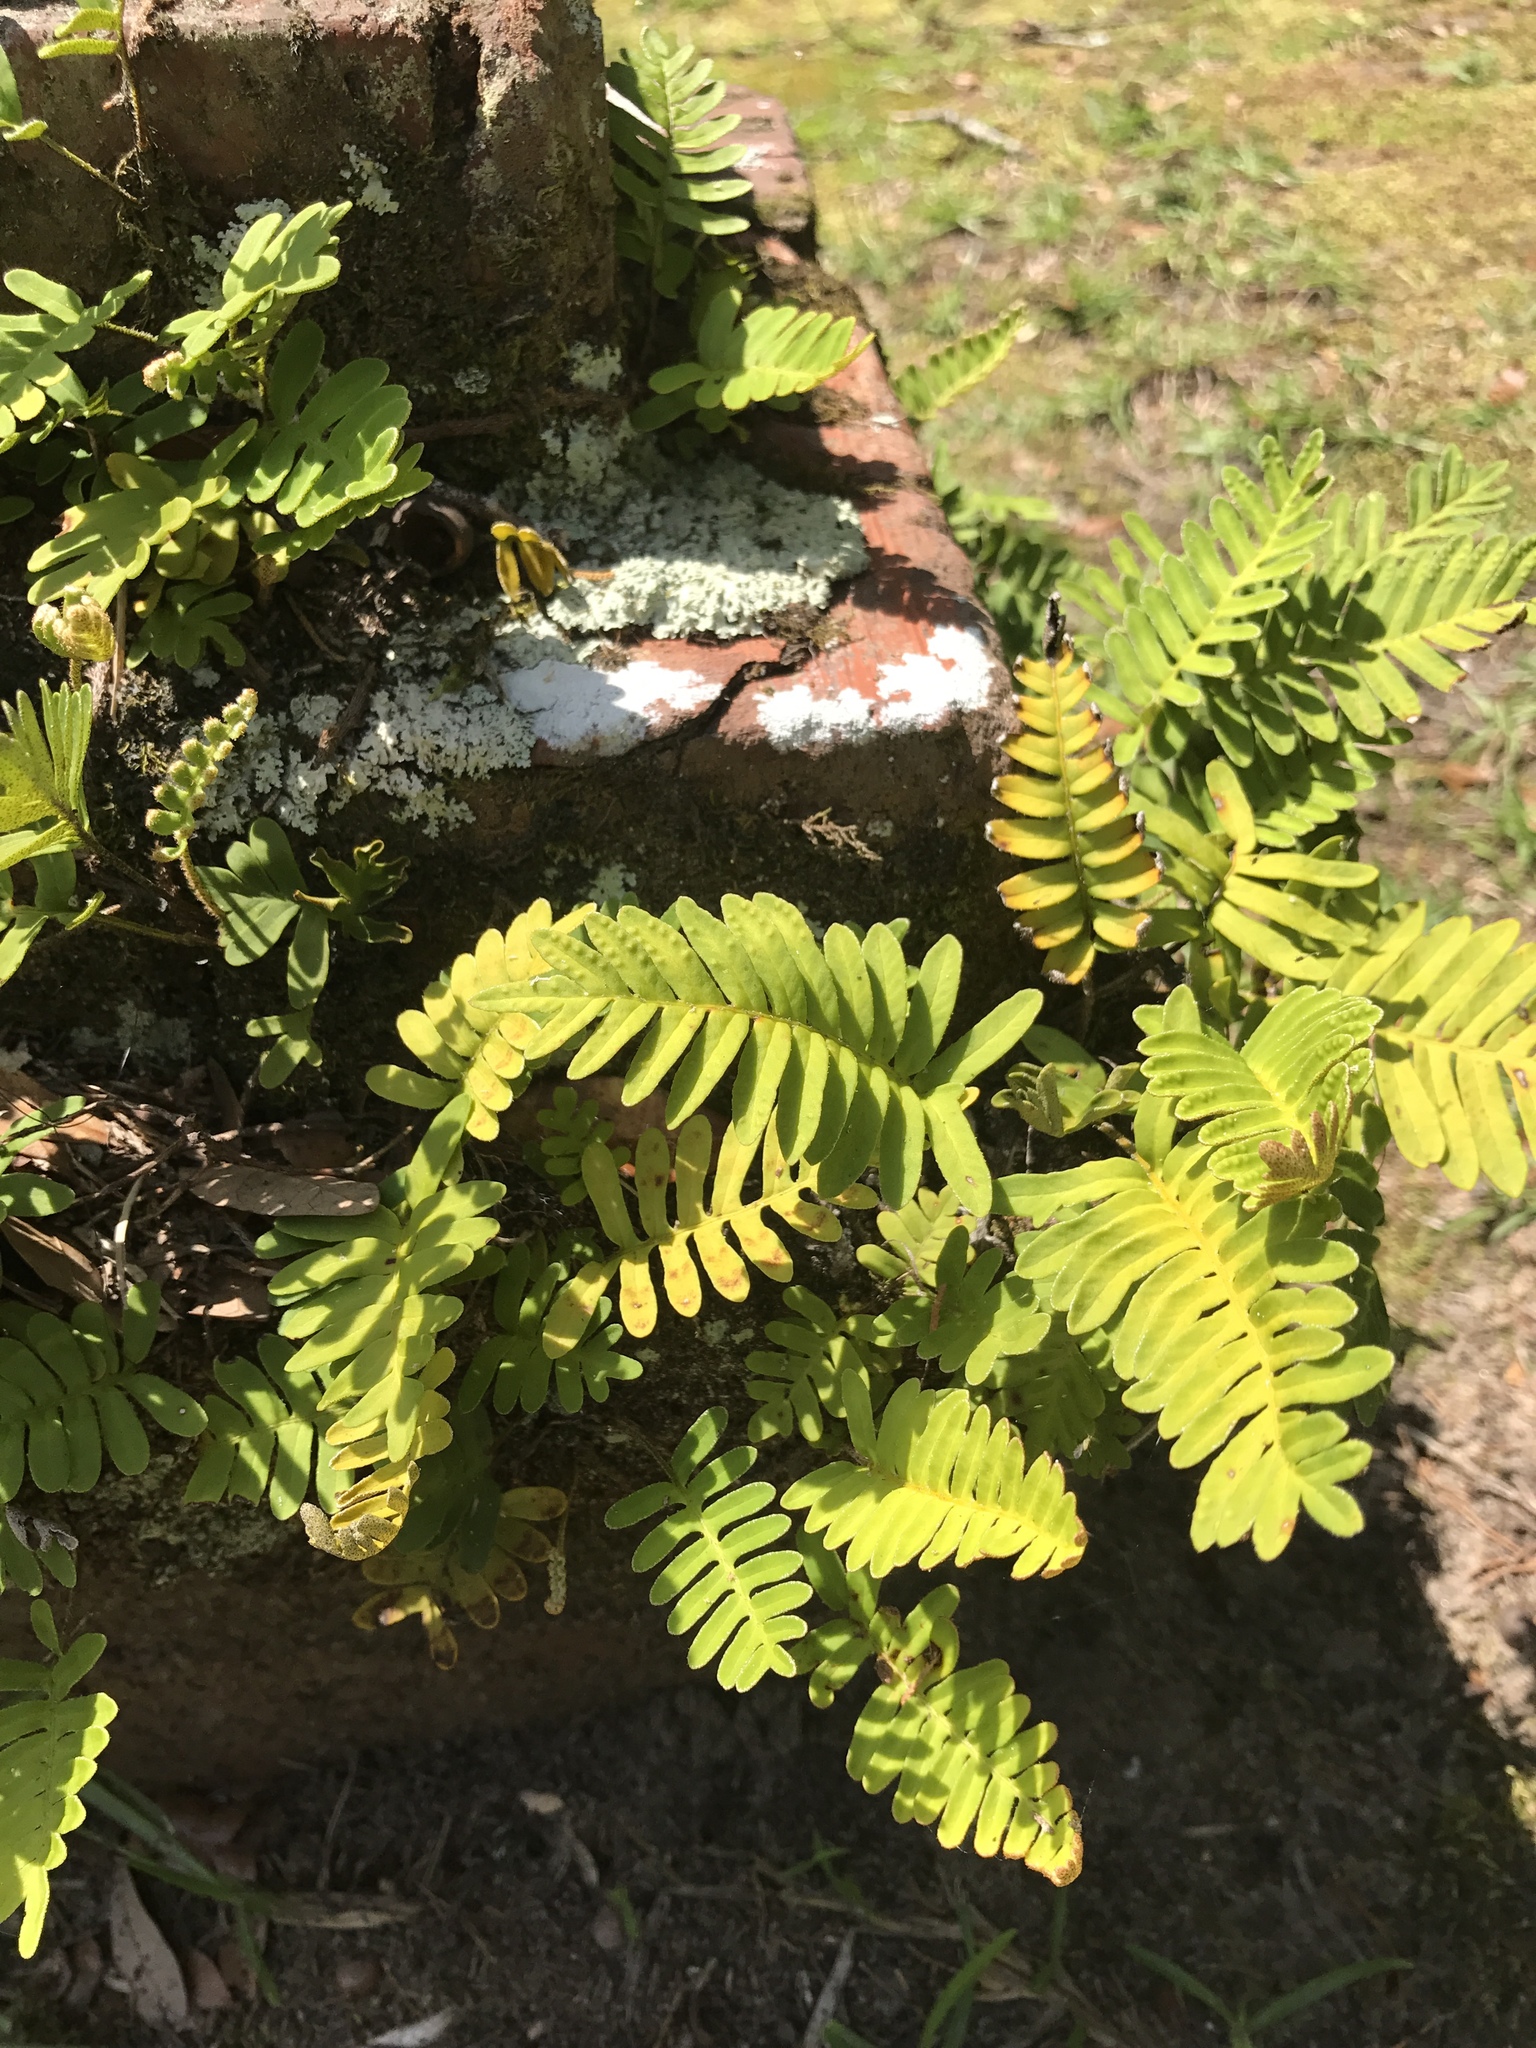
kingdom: Plantae
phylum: Tracheophyta
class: Polypodiopsida
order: Polypodiales
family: Polypodiaceae
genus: Pleopeltis
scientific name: Pleopeltis michauxiana
